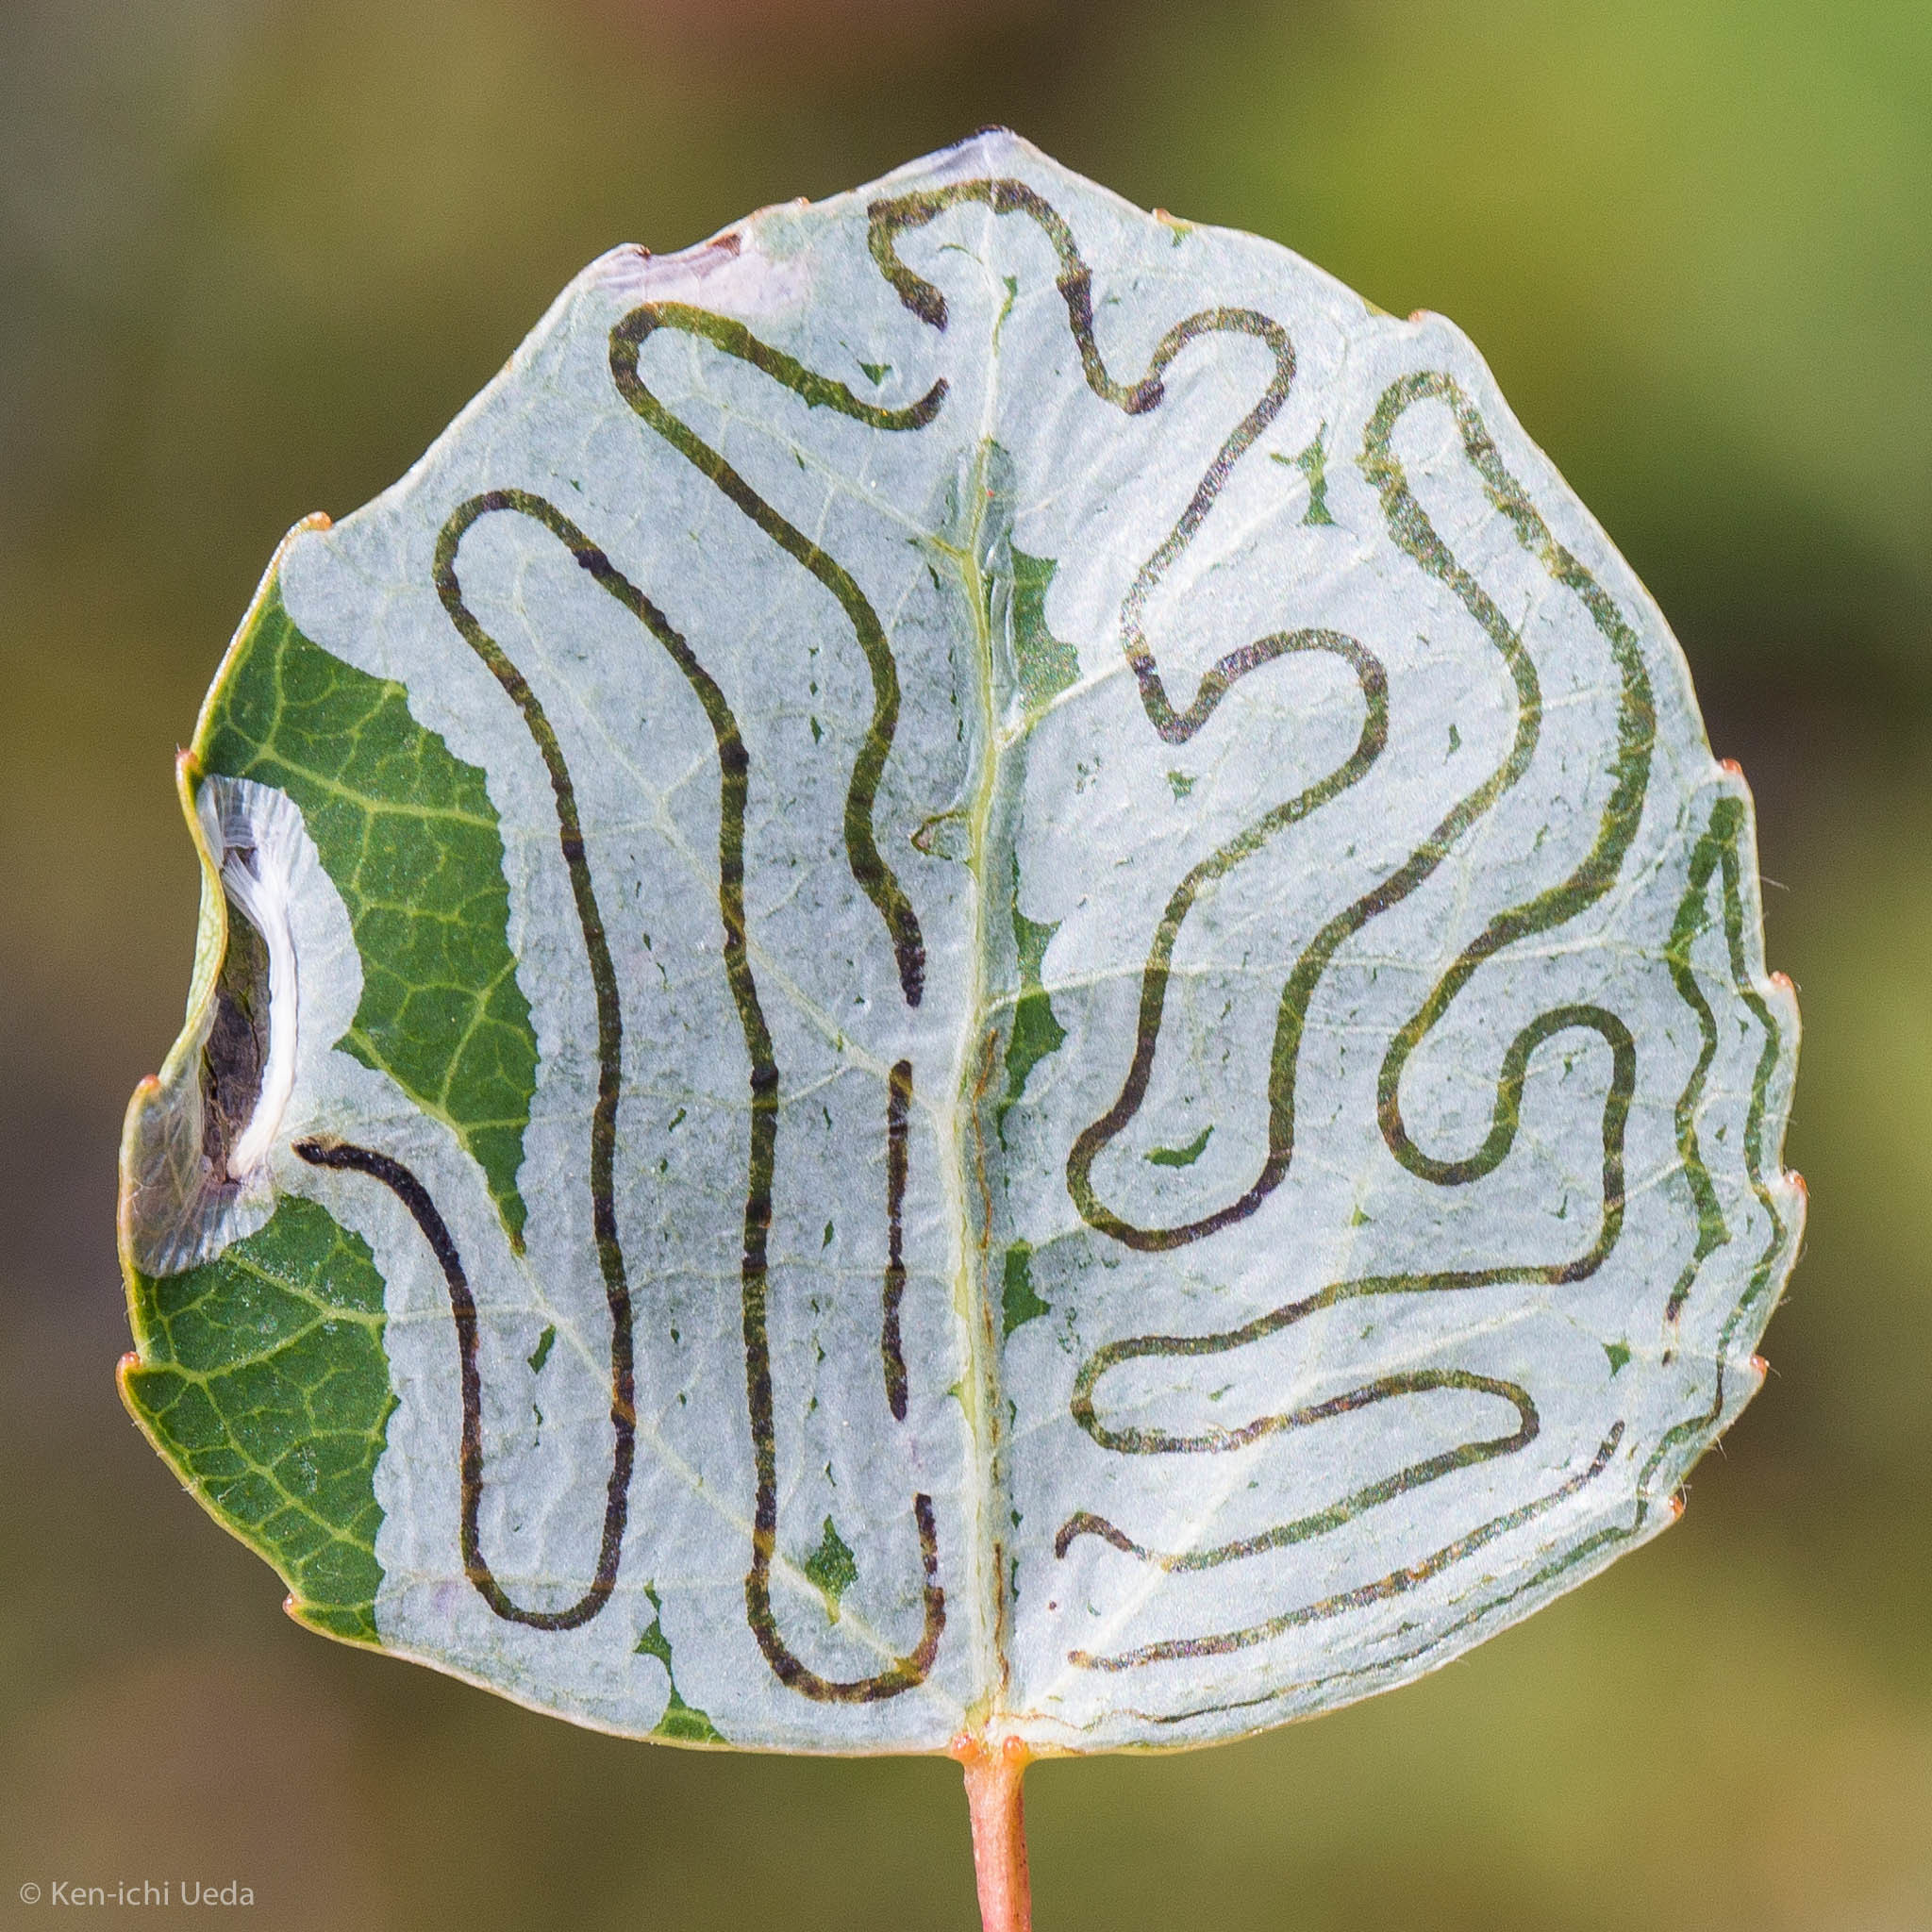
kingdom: Animalia
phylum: Arthropoda
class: Insecta
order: Lepidoptera
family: Gracillariidae
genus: Phyllocnistis
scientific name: Phyllocnistis populiella
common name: Aspen serpentine leafminer moth
